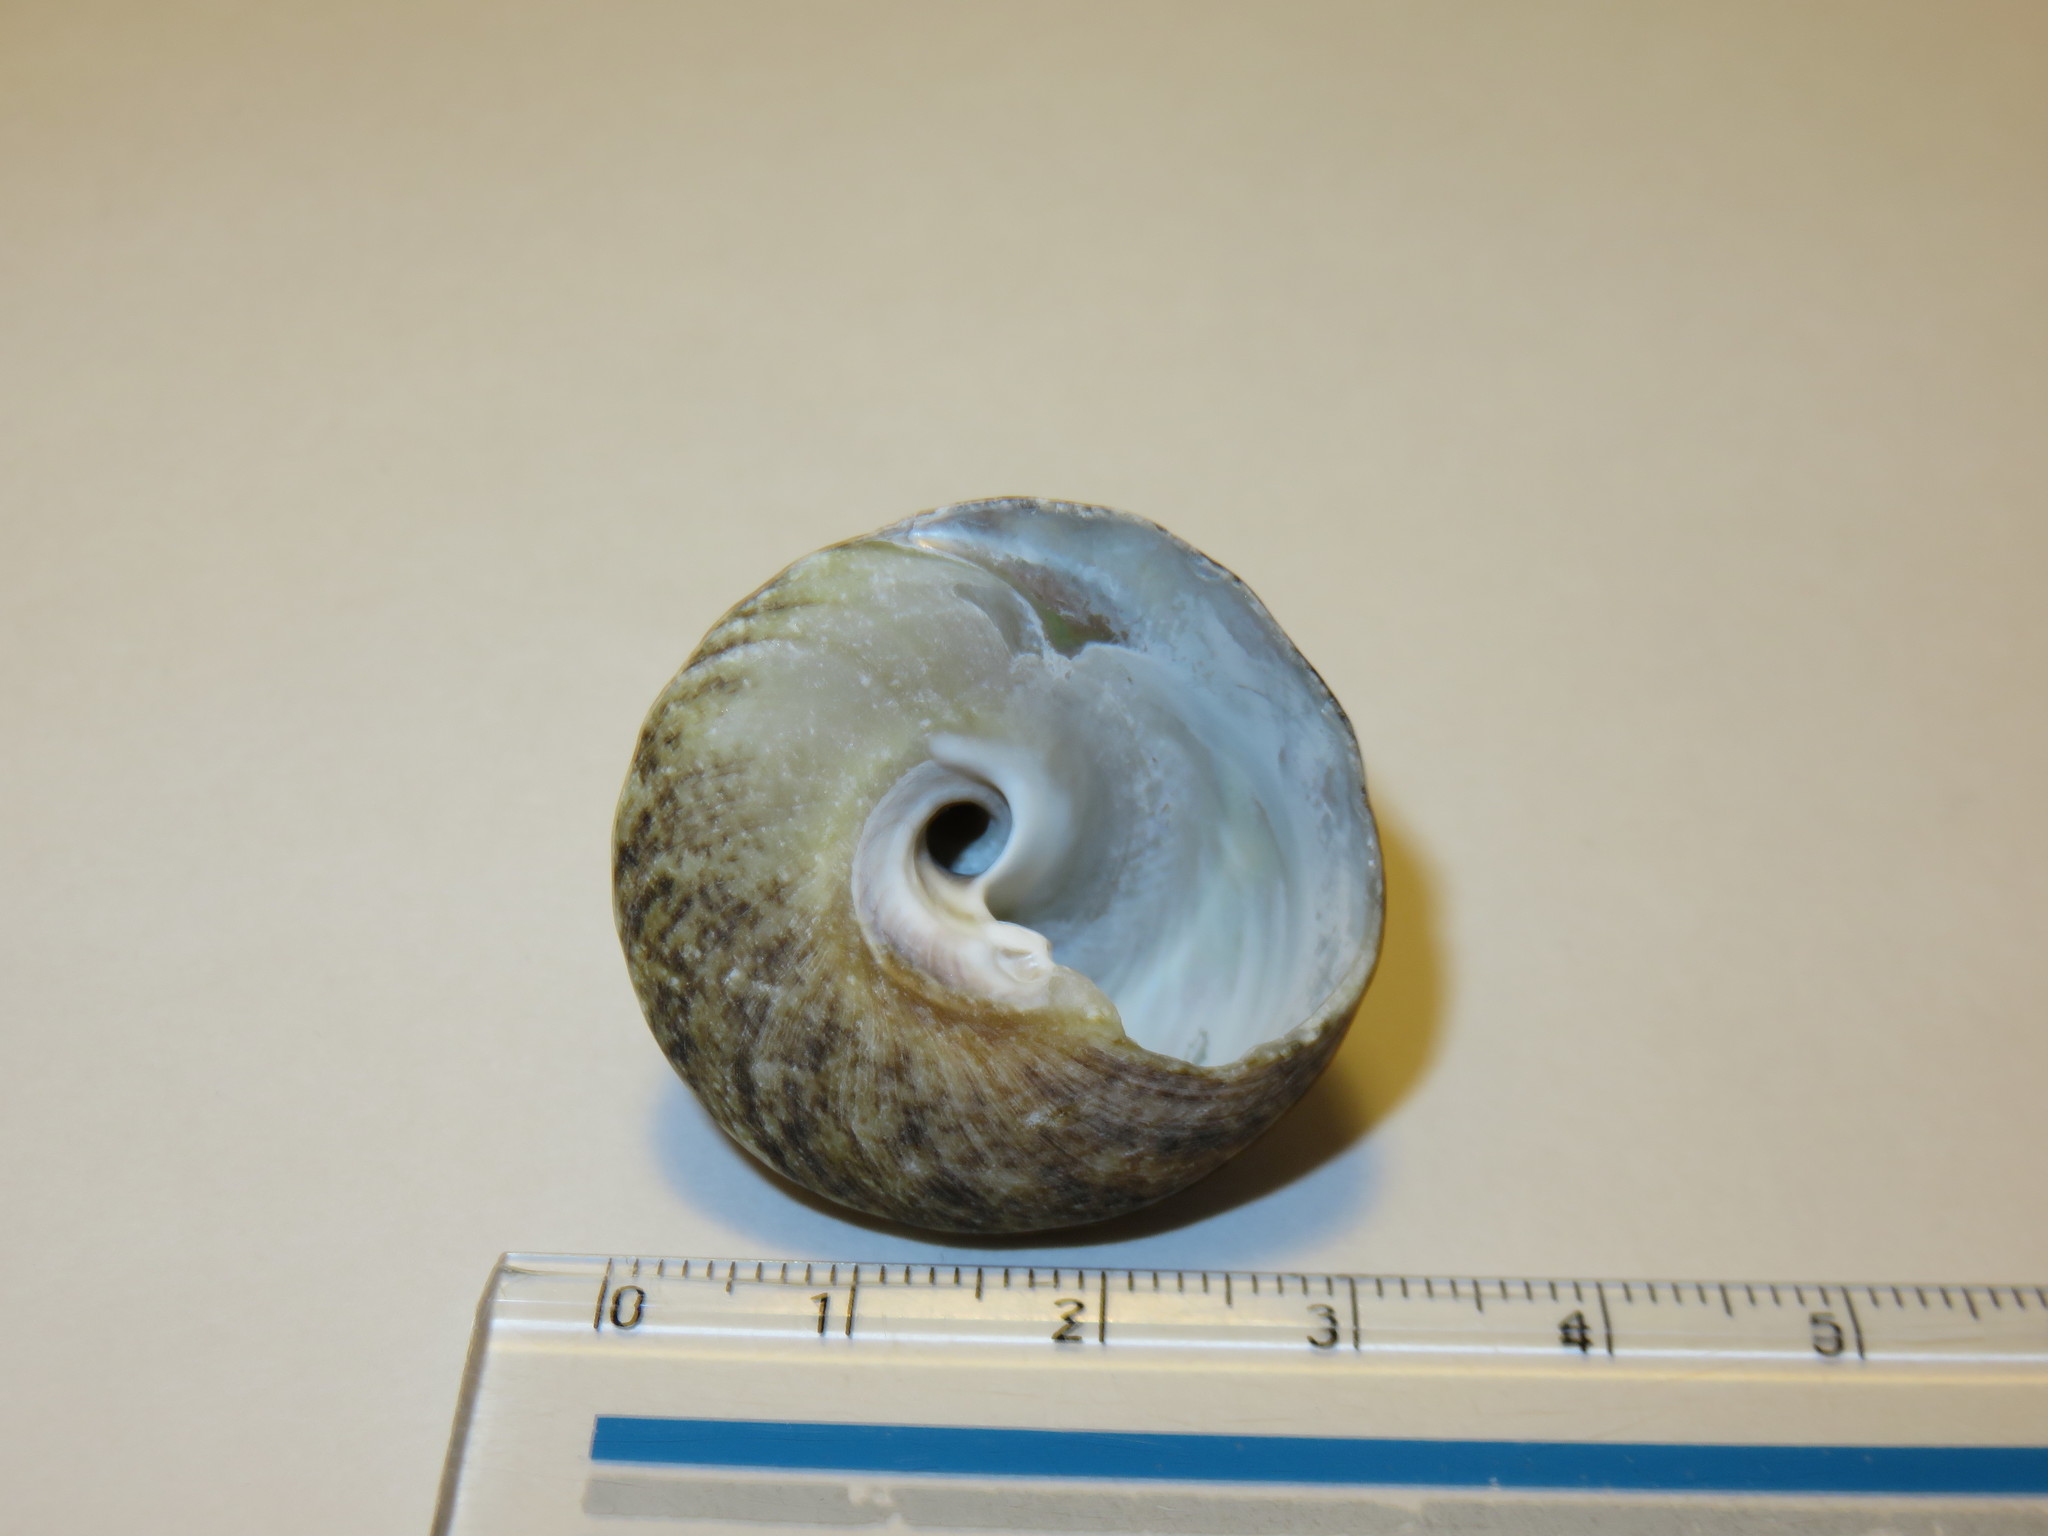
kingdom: Animalia
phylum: Mollusca
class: Gastropoda
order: Trochida
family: Tegulidae
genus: Tegula
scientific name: Tegula pfeifferi
